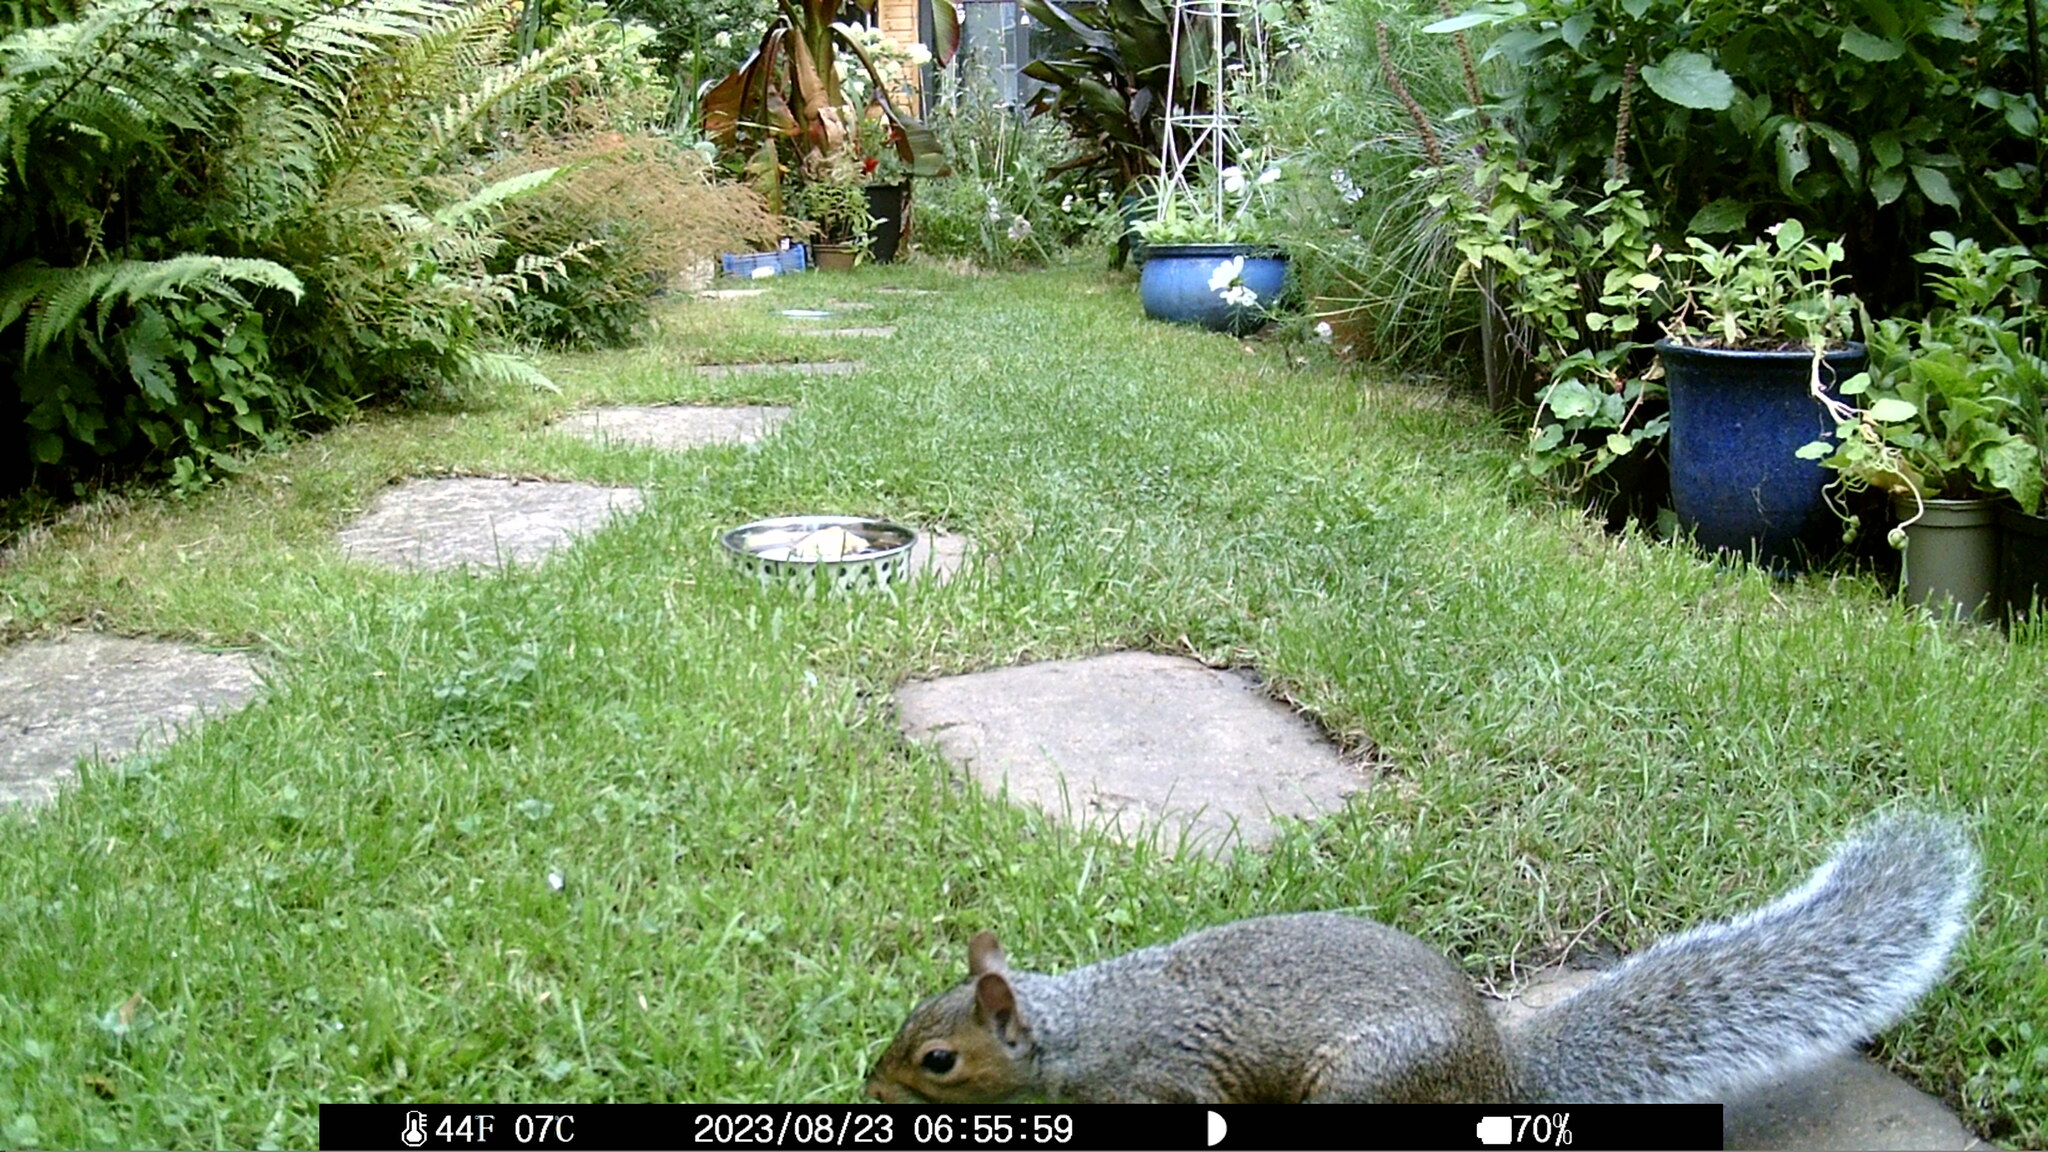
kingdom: Animalia
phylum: Chordata
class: Mammalia
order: Rodentia
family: Sciuridae
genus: Sciurus
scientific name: Sciurus carolinensis
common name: Eastern gray squirrel
